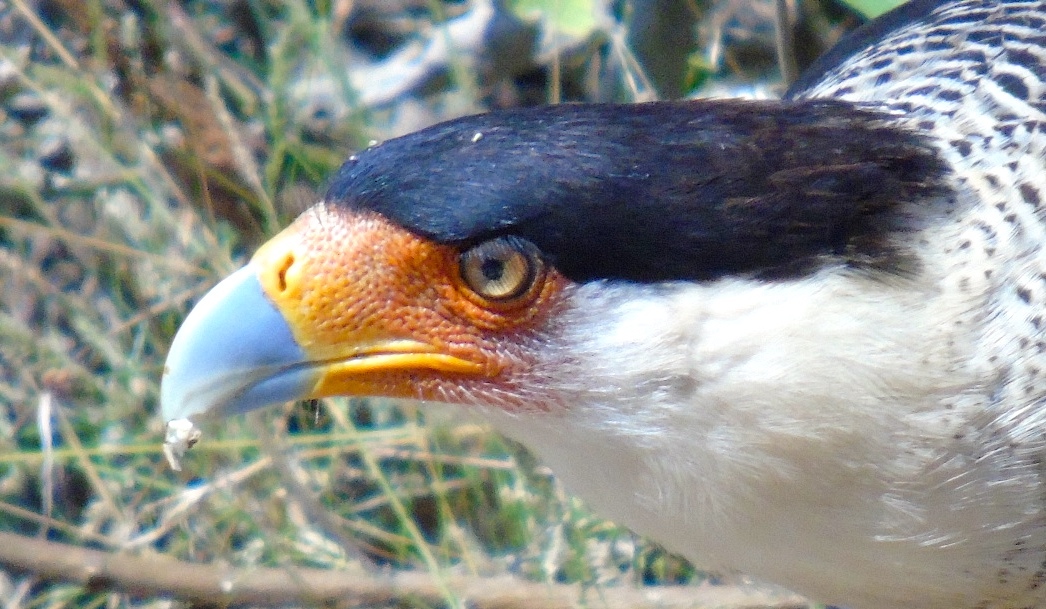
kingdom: Animalia
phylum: Chordata
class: Aves
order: Falconiformes
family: Falconidae
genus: Caracara
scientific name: Caracara plancus
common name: Southern caracara
